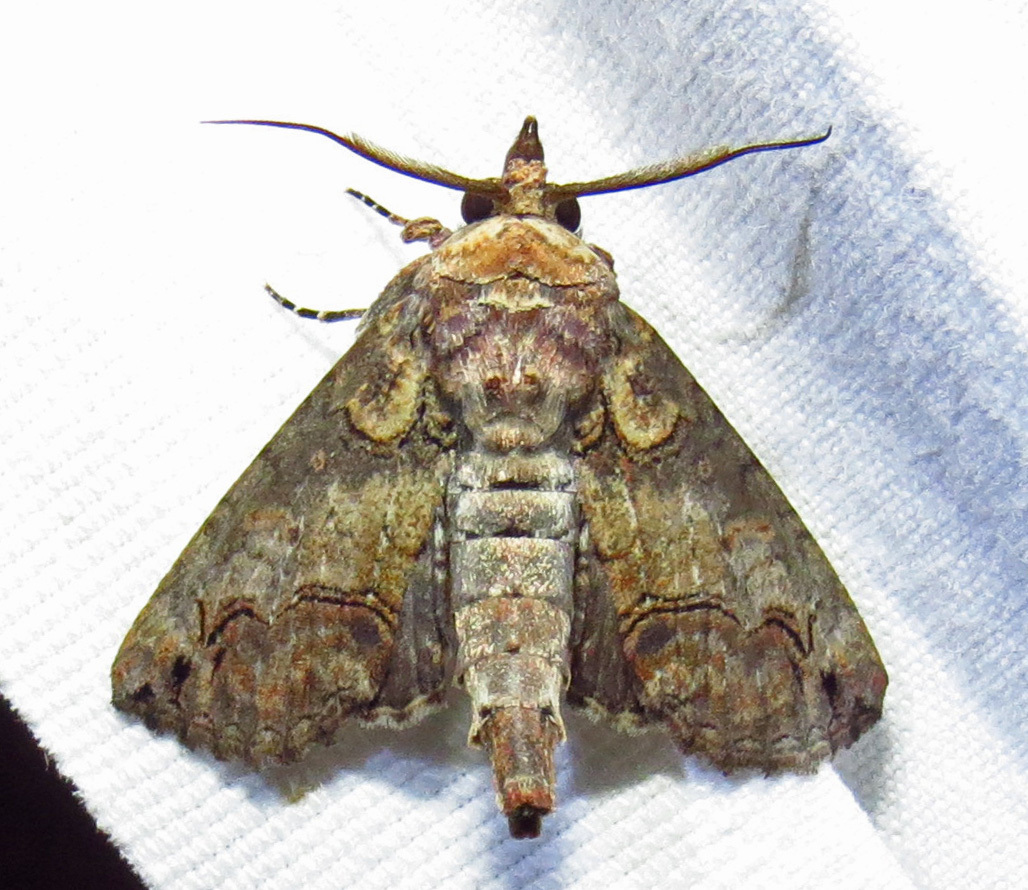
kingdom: Animalia
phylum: Arthropoda
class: Insecta
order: Lepidoptera
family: Euteliidae
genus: Paectes
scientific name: Paectes abrostoloides
